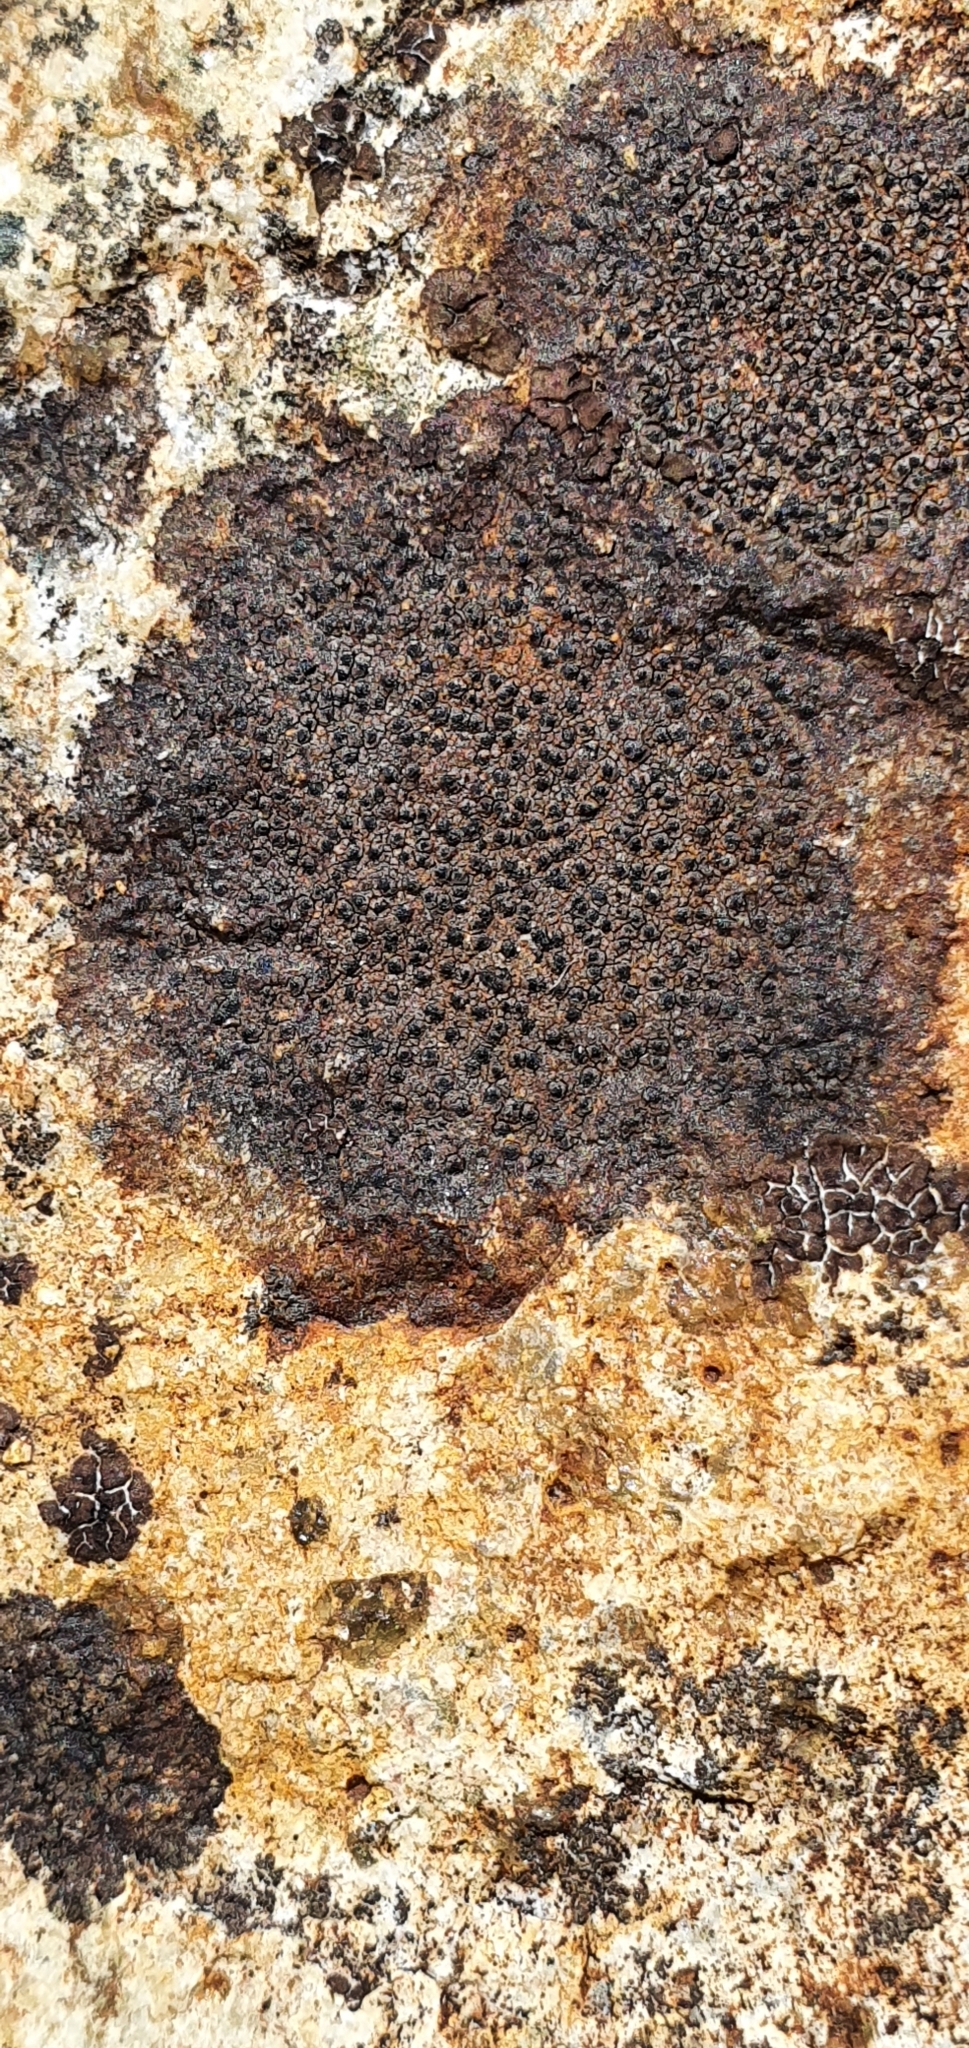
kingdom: Fungi
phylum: Ascomycota
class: Eurotiomycetes
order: Verrucariales
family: Verrucariaceae
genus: Verrucaria
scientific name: Verrucaria fusconigrescens
